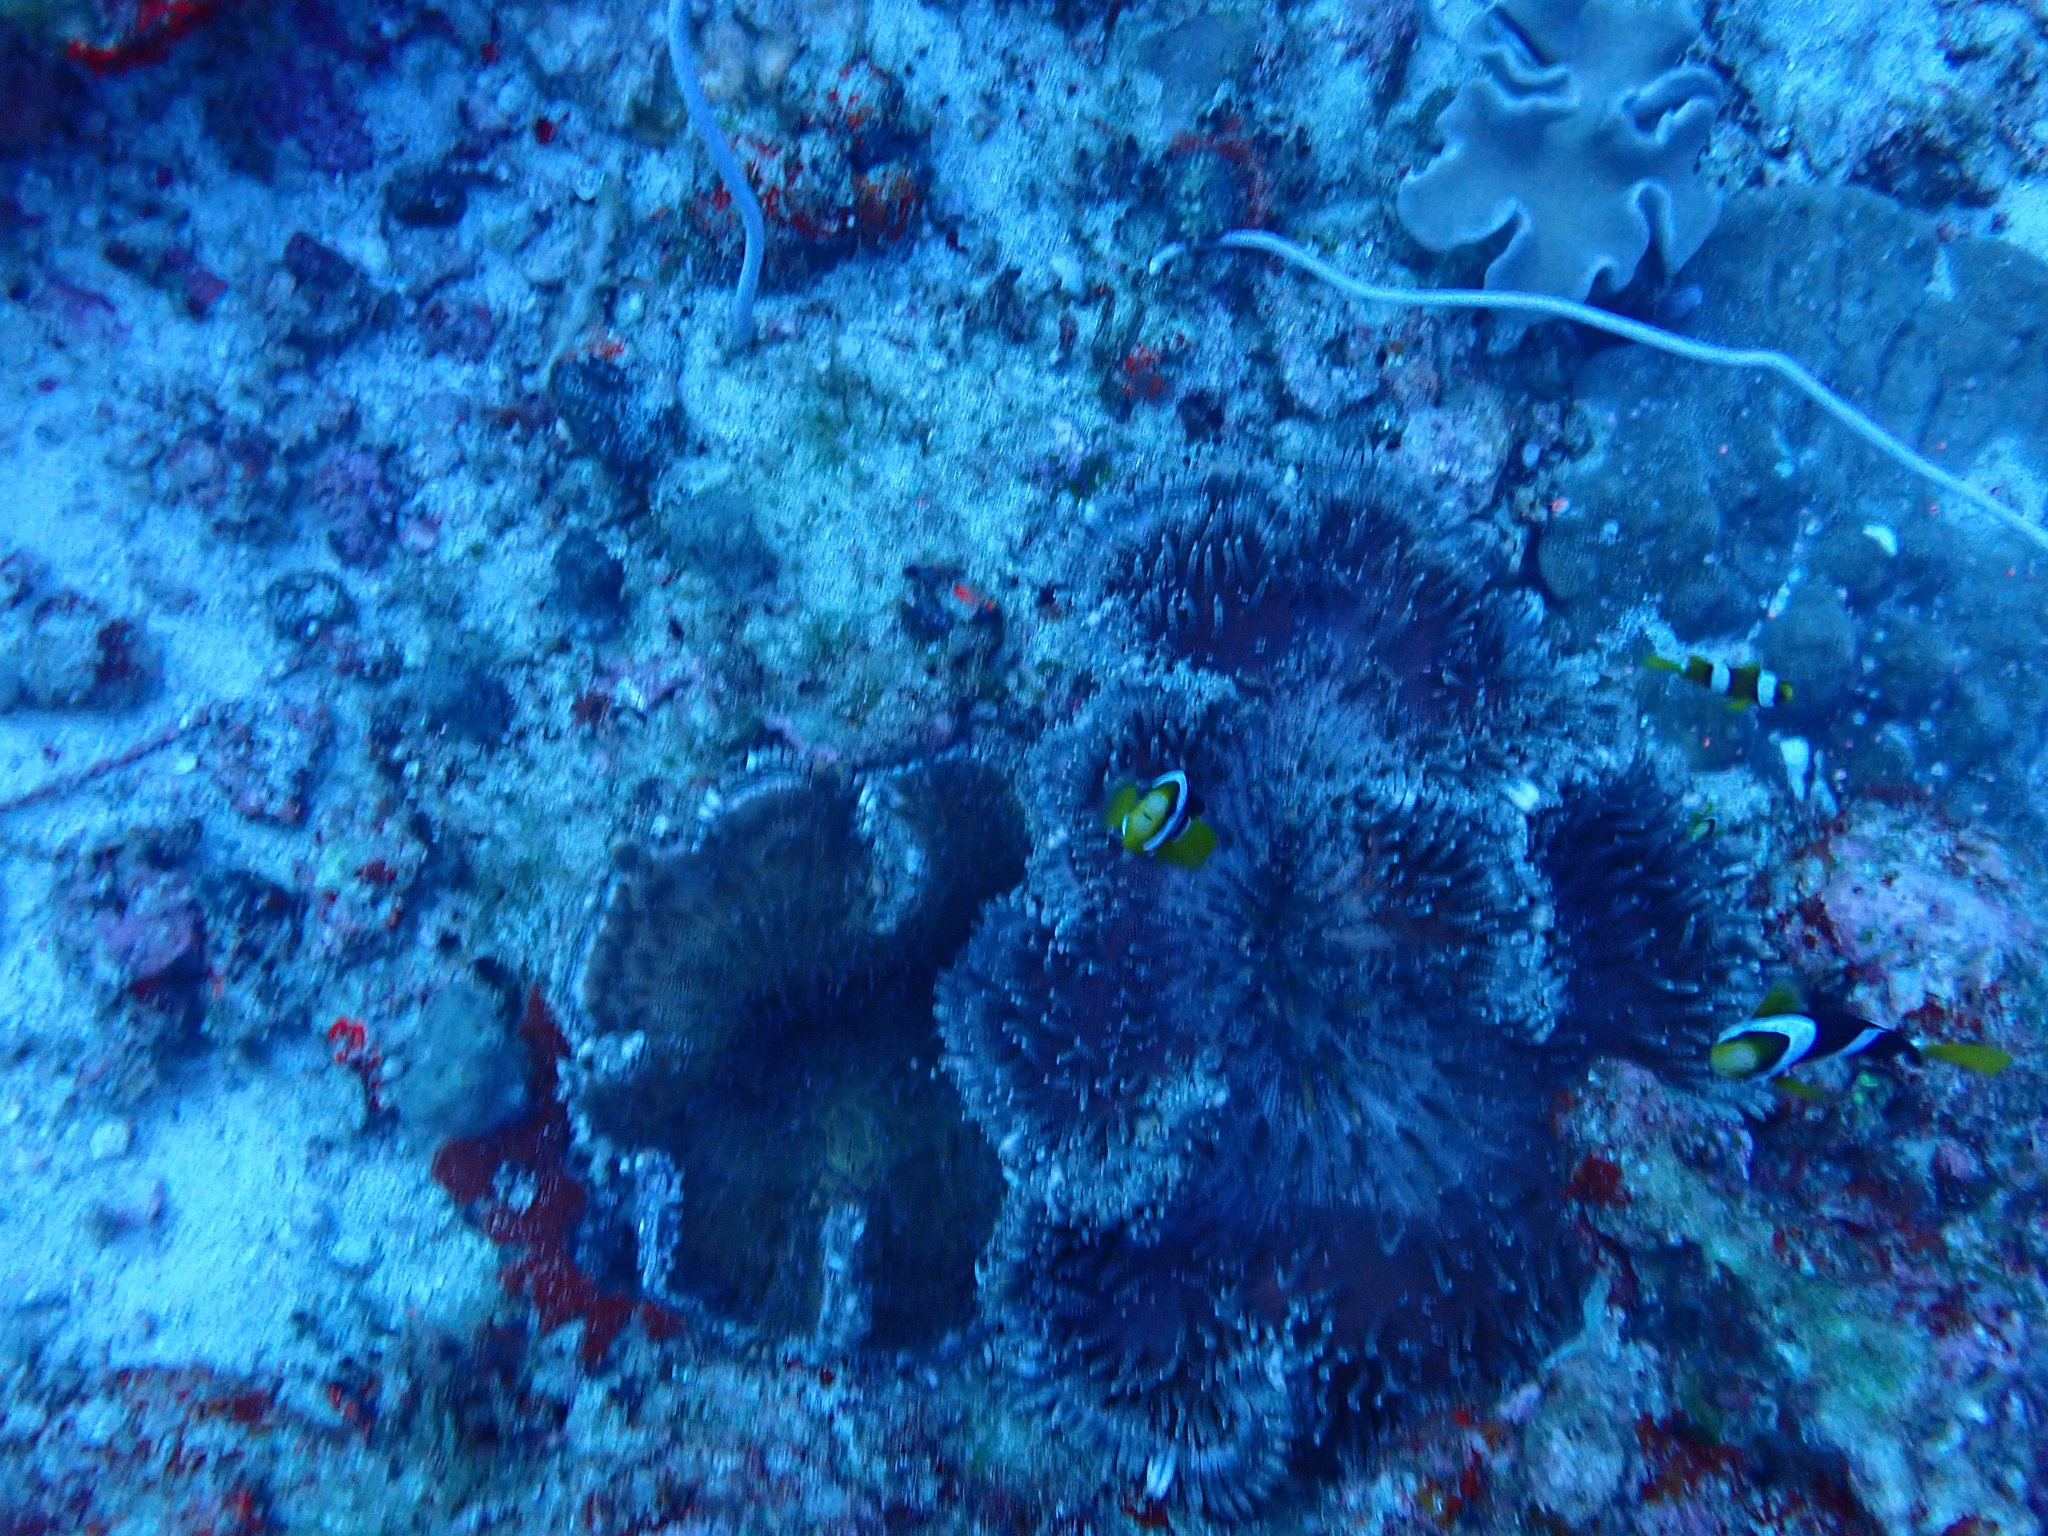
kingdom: Animalia
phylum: Chordata
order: Perciformes
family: Pomacentridae
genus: Amphiprion
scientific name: Amphiprion clarkii
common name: Clark's anemonefish
